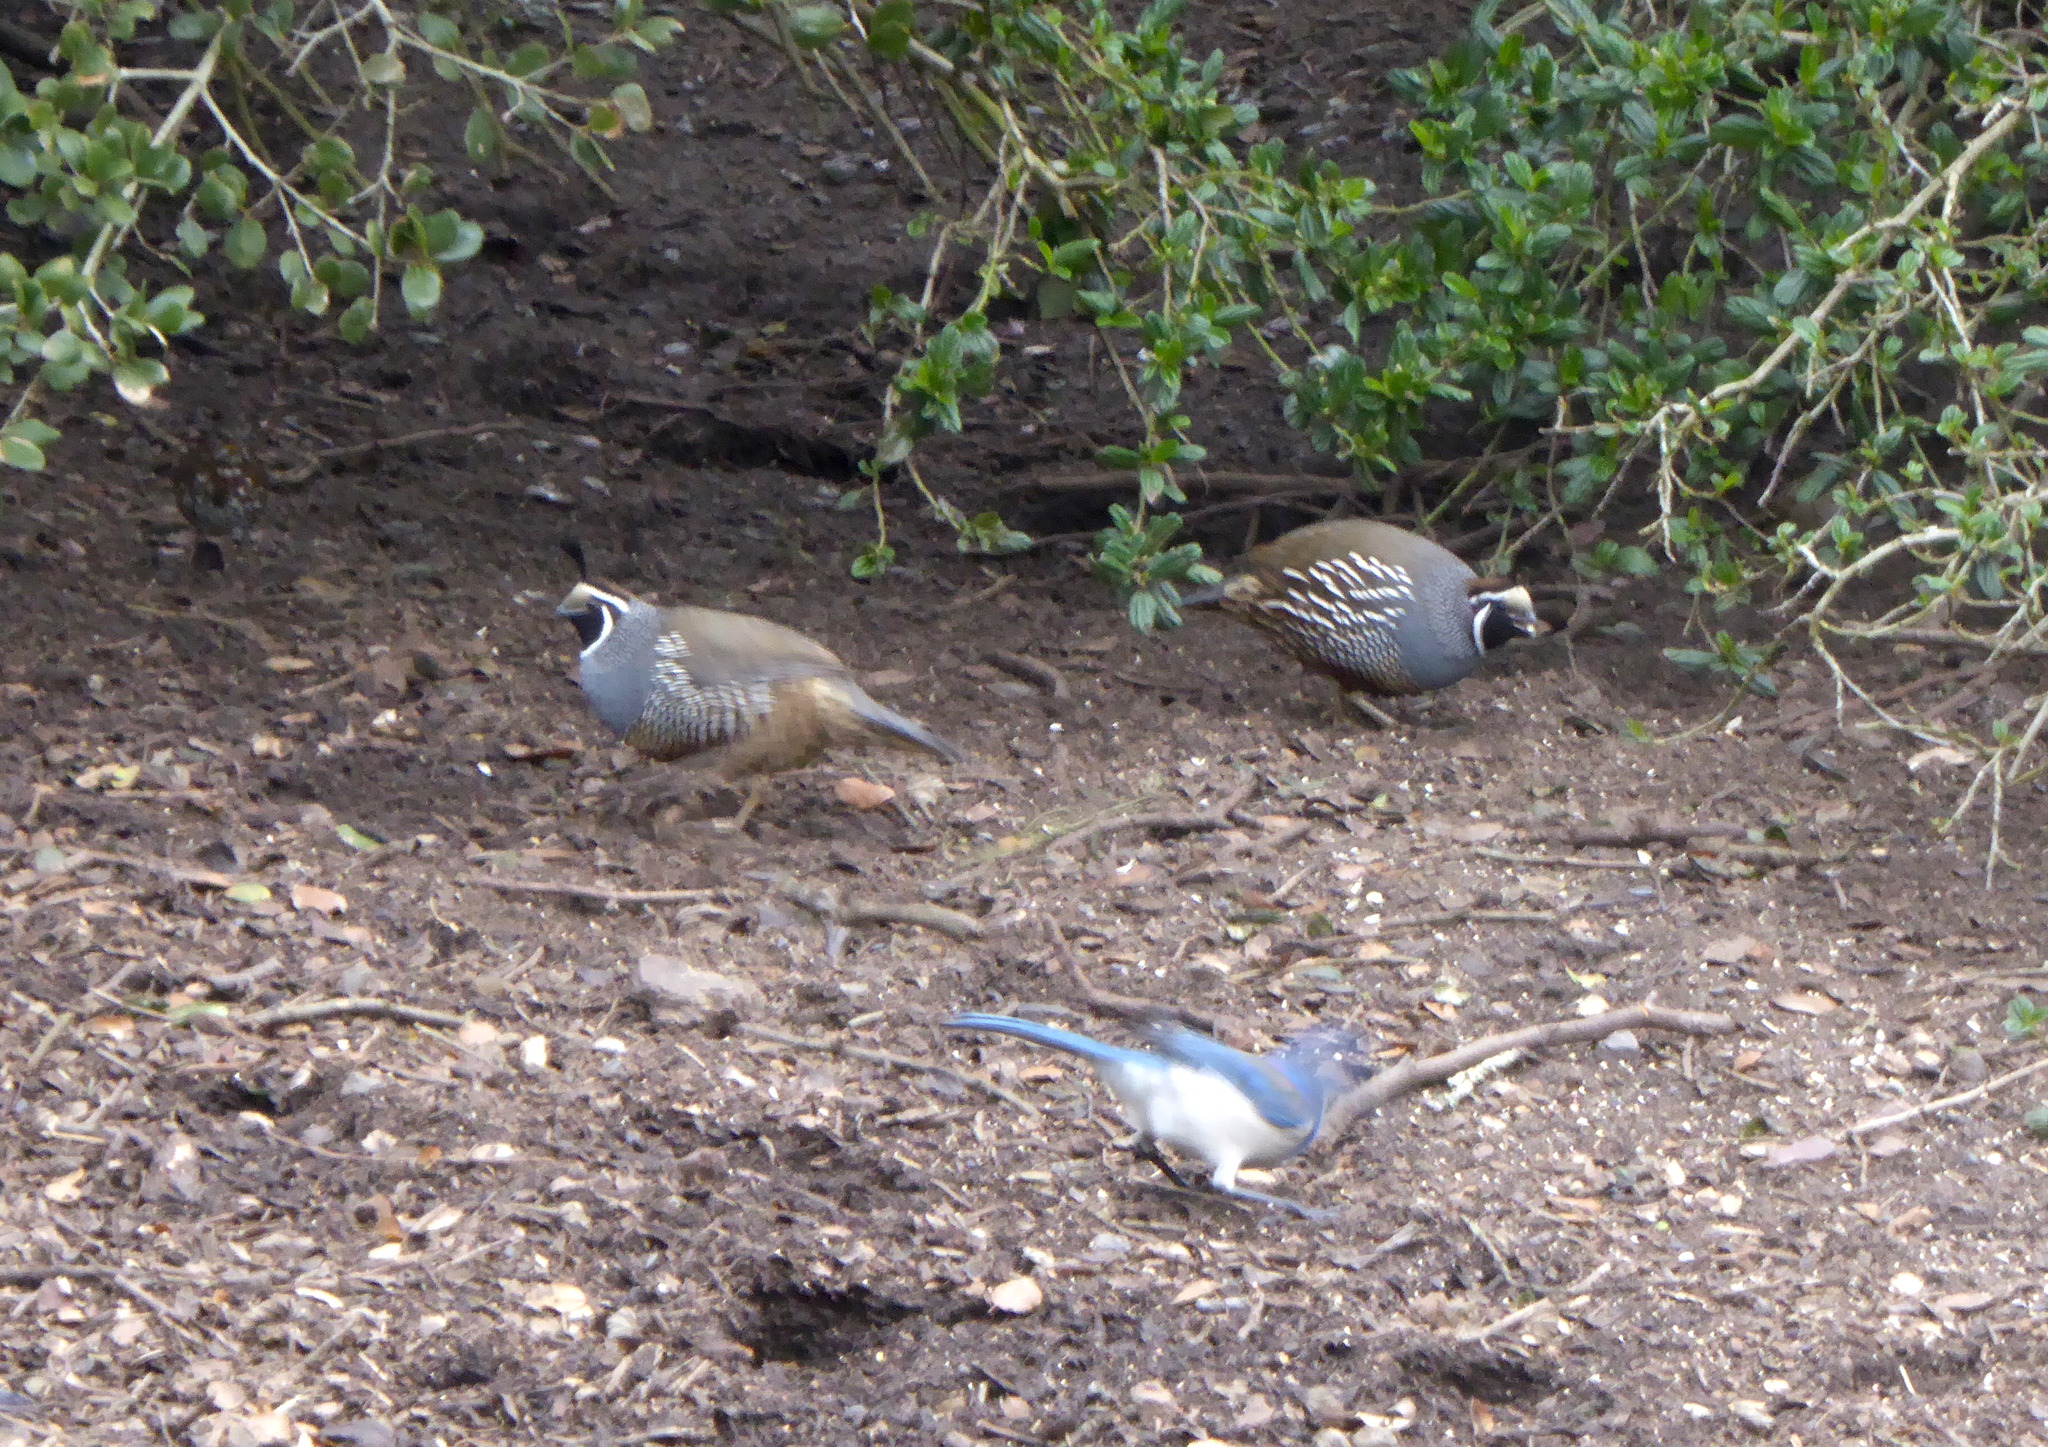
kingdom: Animalia
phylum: Chordata
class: Aves
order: Galliformes
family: Odontophoridae
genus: Callipepla
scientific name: Callipepla californica
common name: California quail
